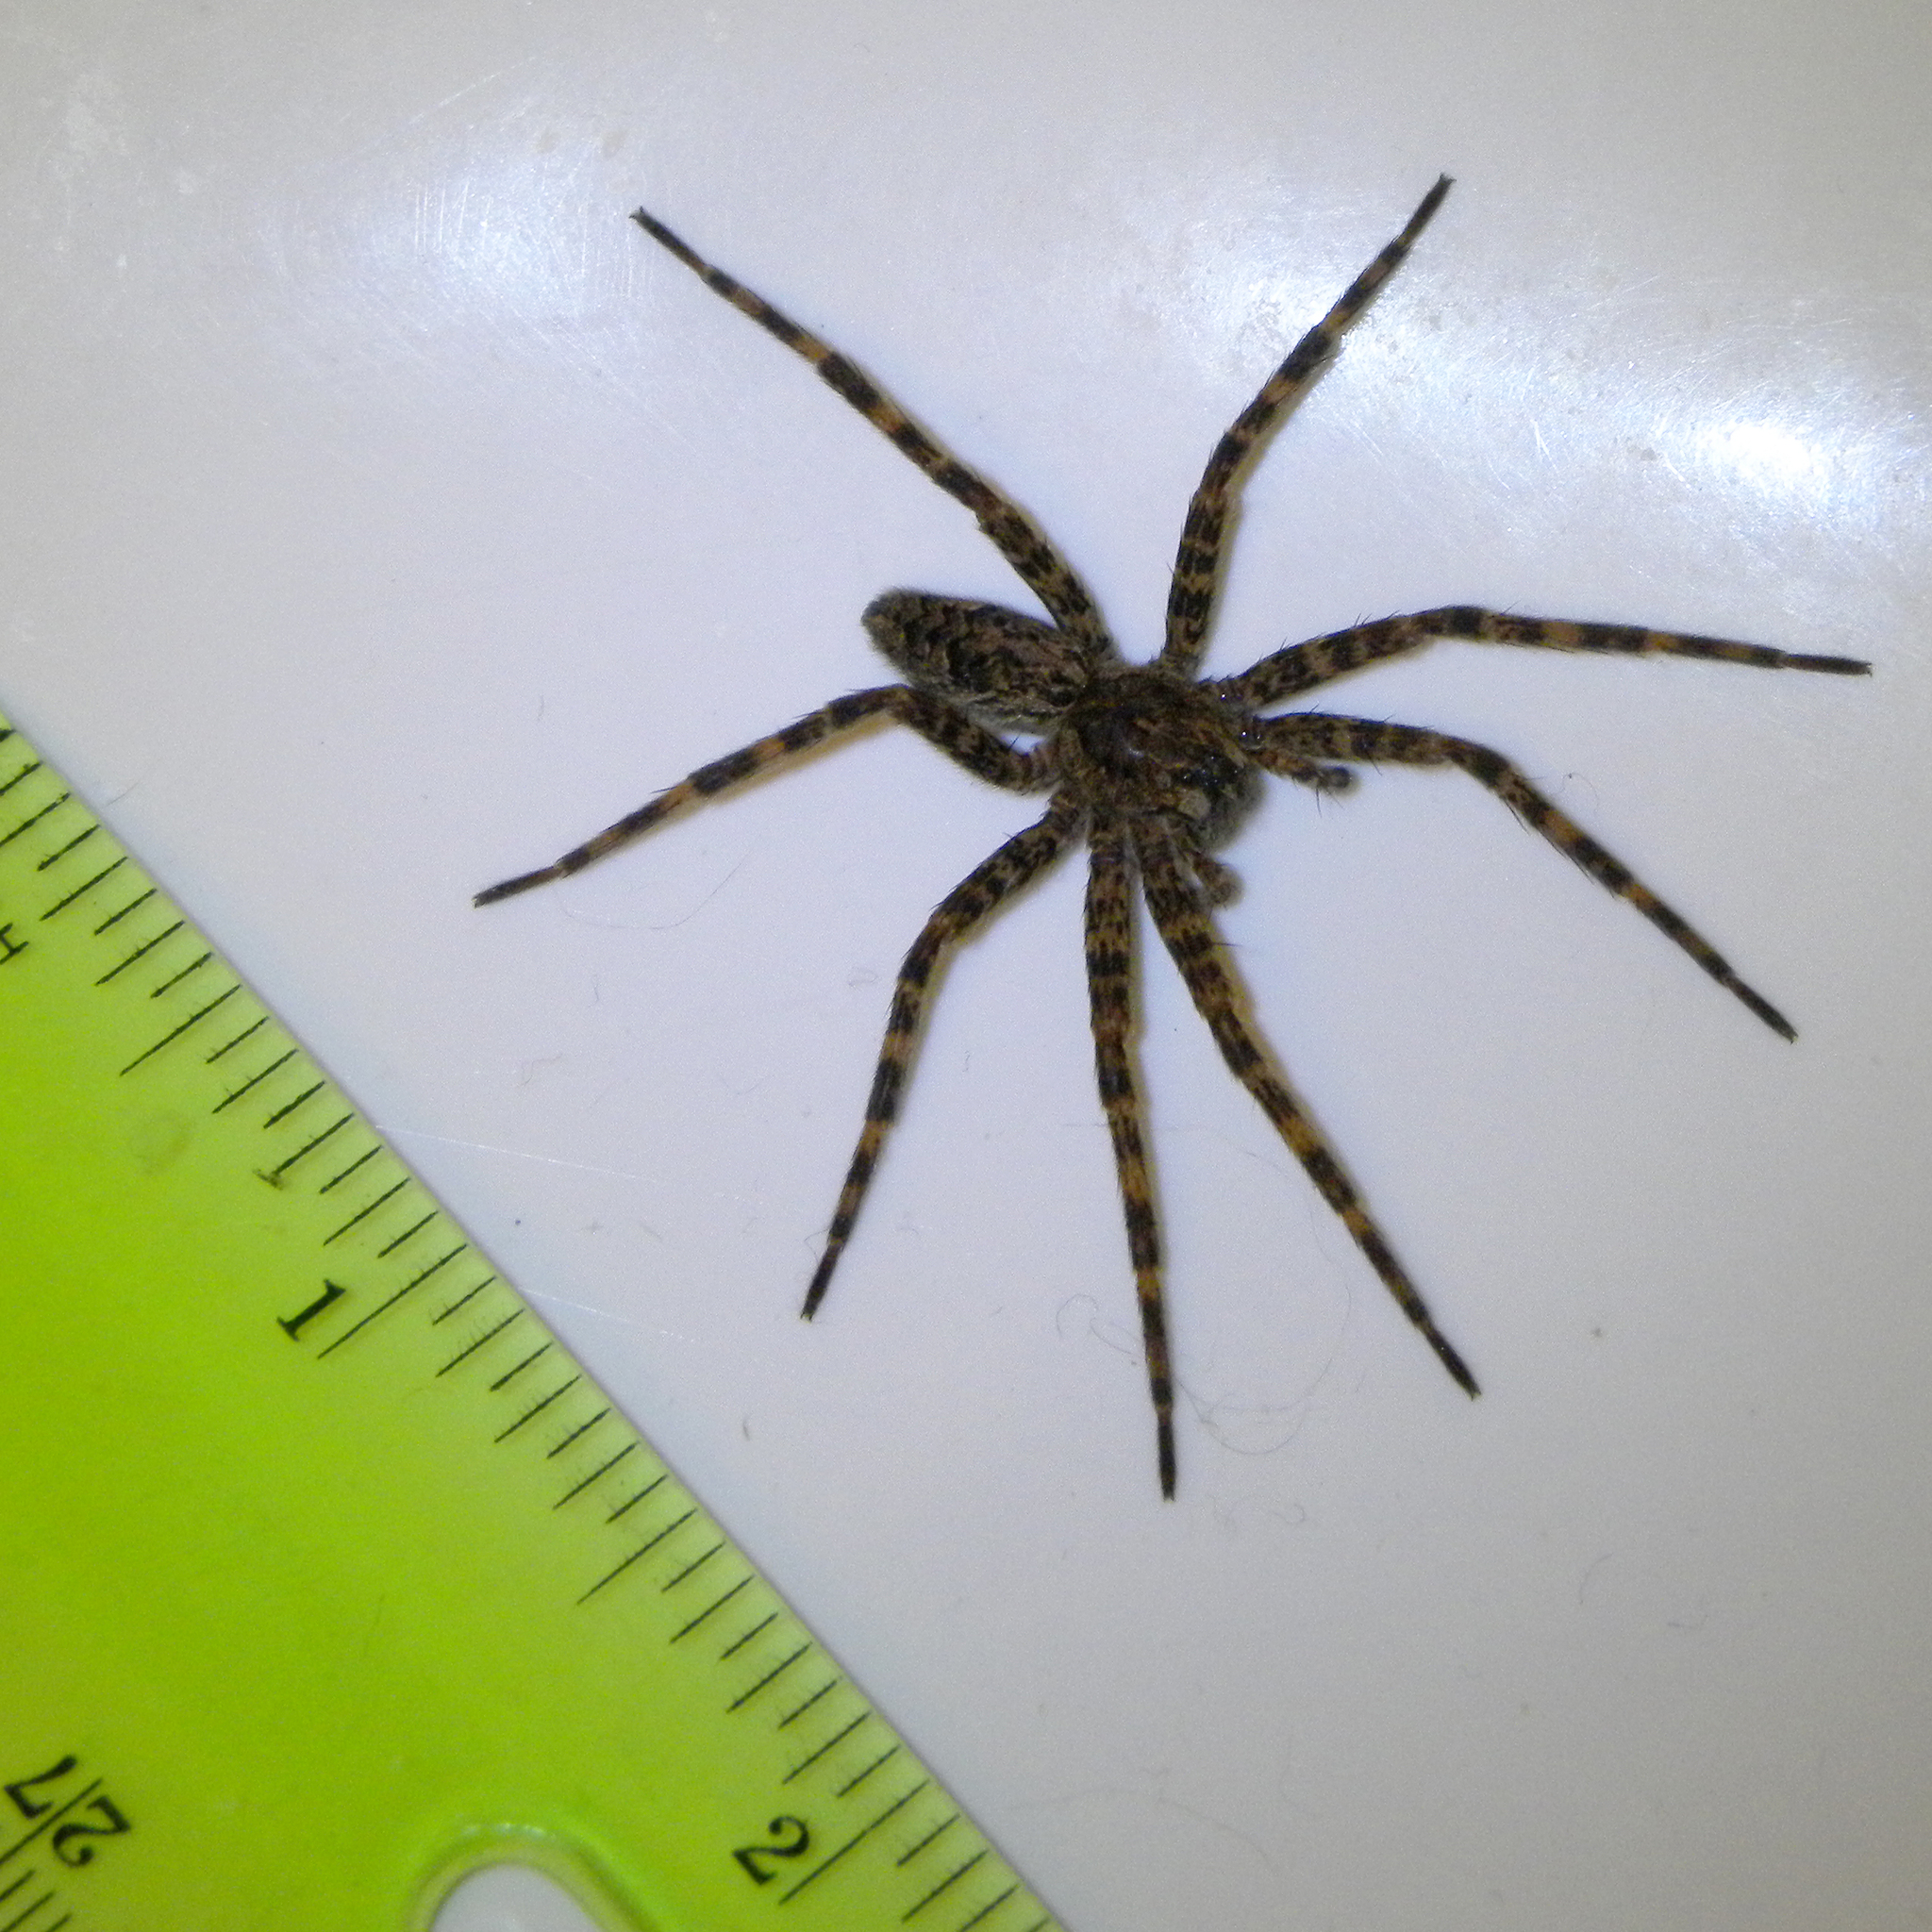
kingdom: Animalia
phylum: Arthropoda
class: Arachnida
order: Araneae
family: Pisauridae
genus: Dolomedes
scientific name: Dolomedes tenebrosus
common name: Dark fishing spider
